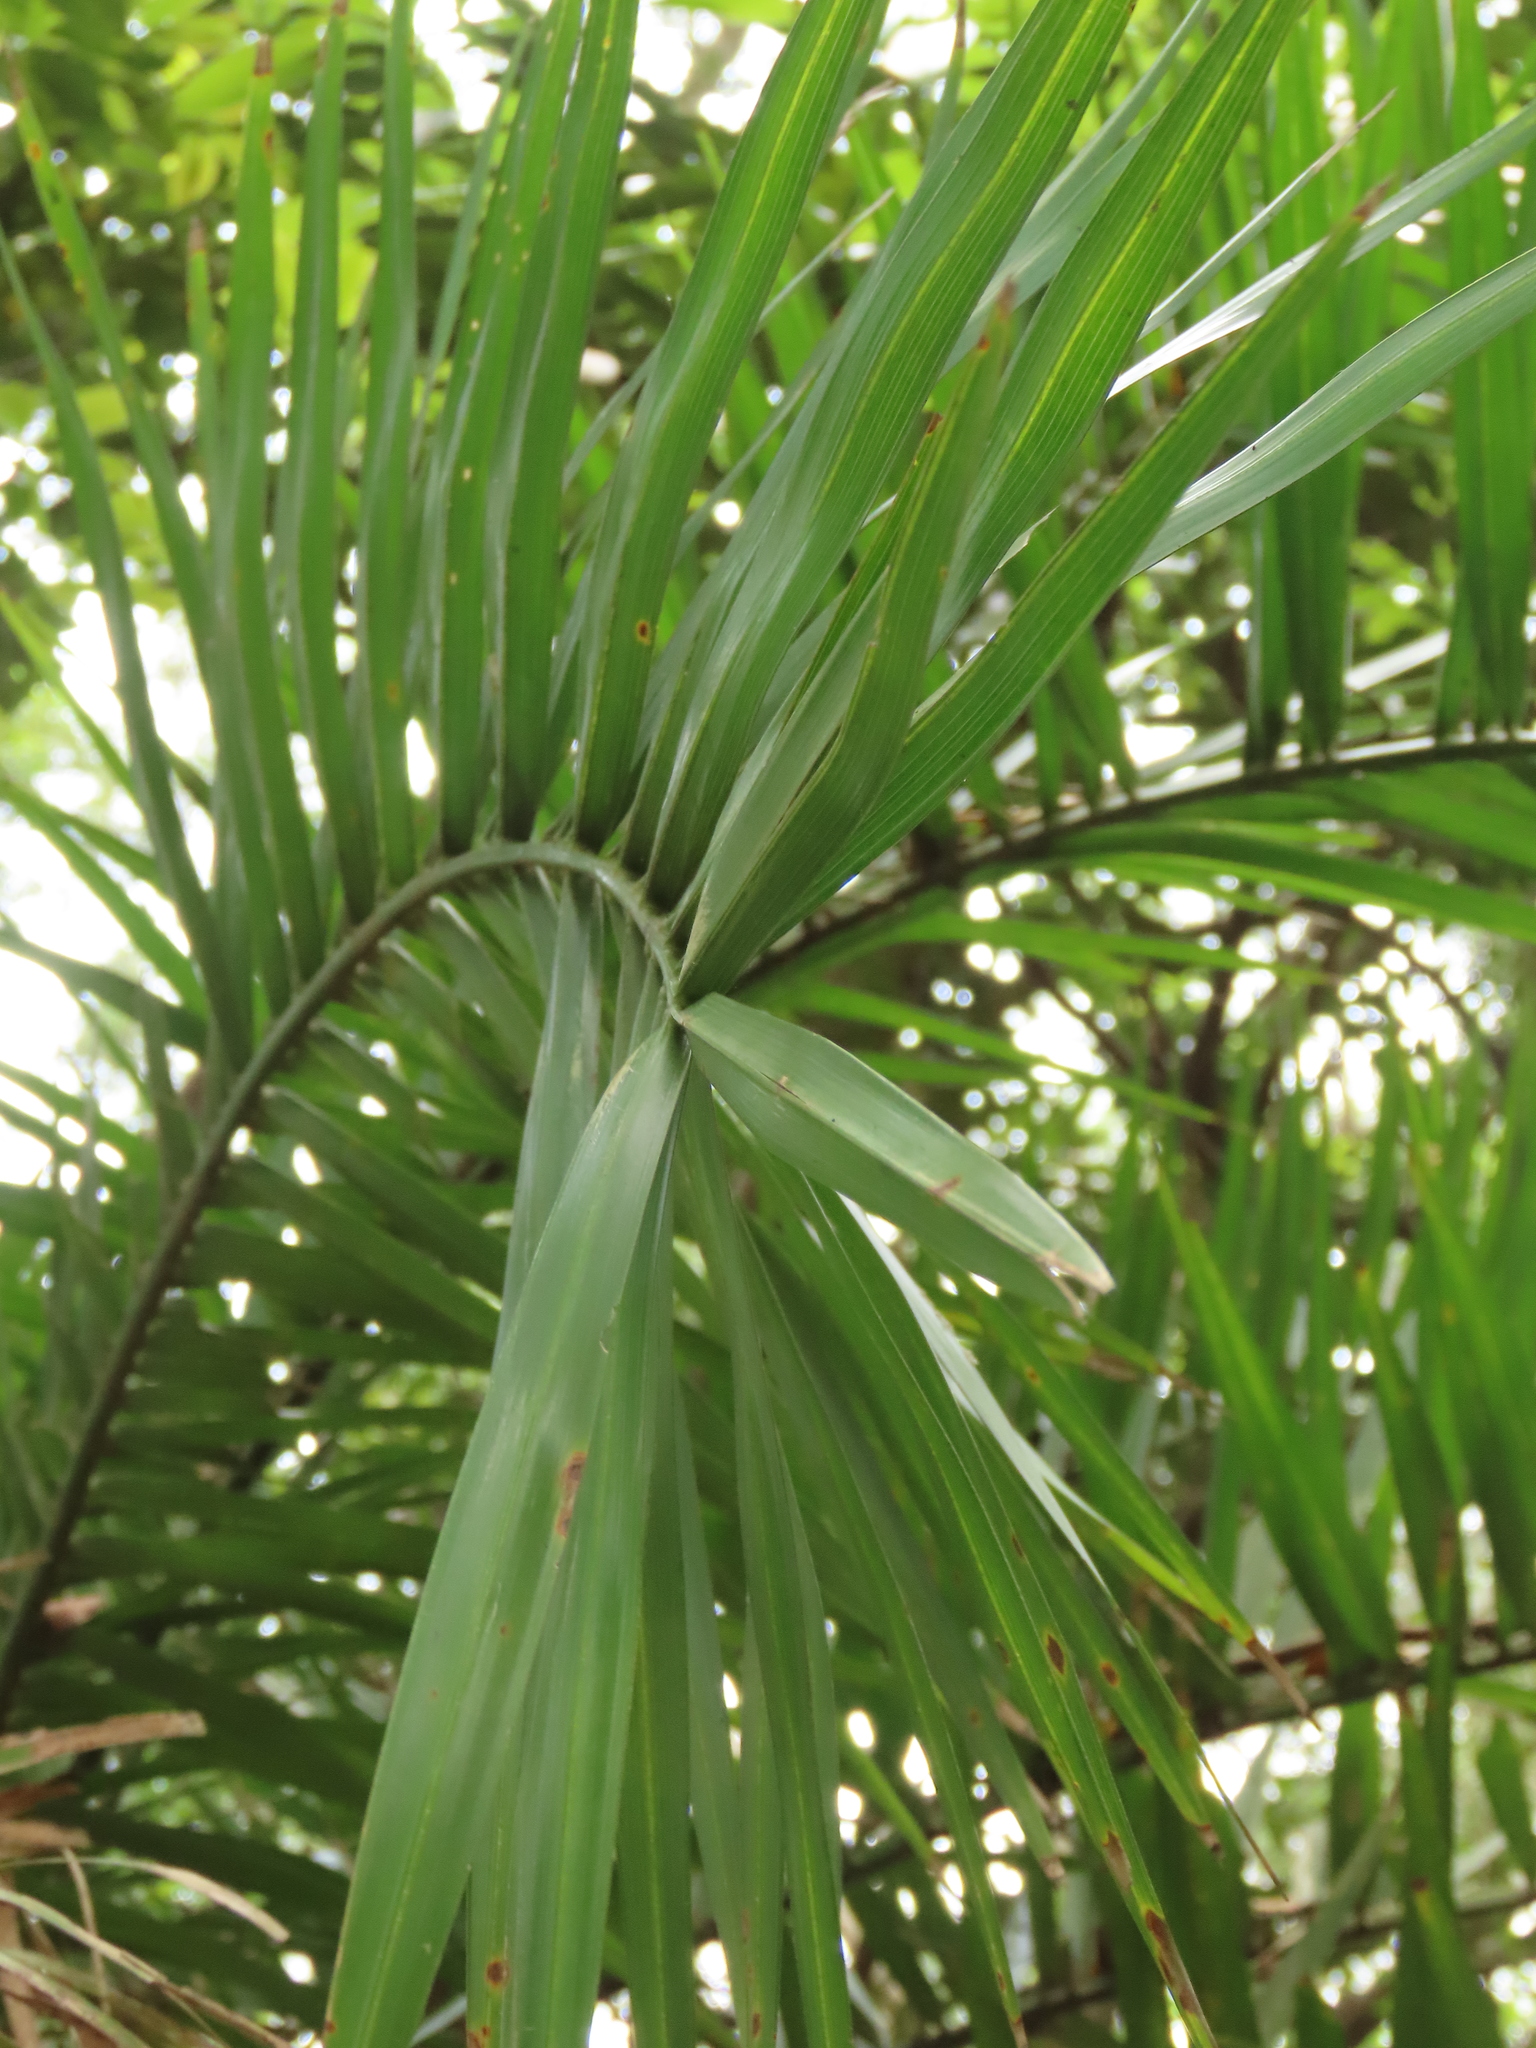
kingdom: Plantae
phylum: Tracheophyta
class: Liliopsida
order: Arecales
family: Arecaceae
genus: Phoenix
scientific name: Phoenix loureiroi
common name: Loureiro's palm
